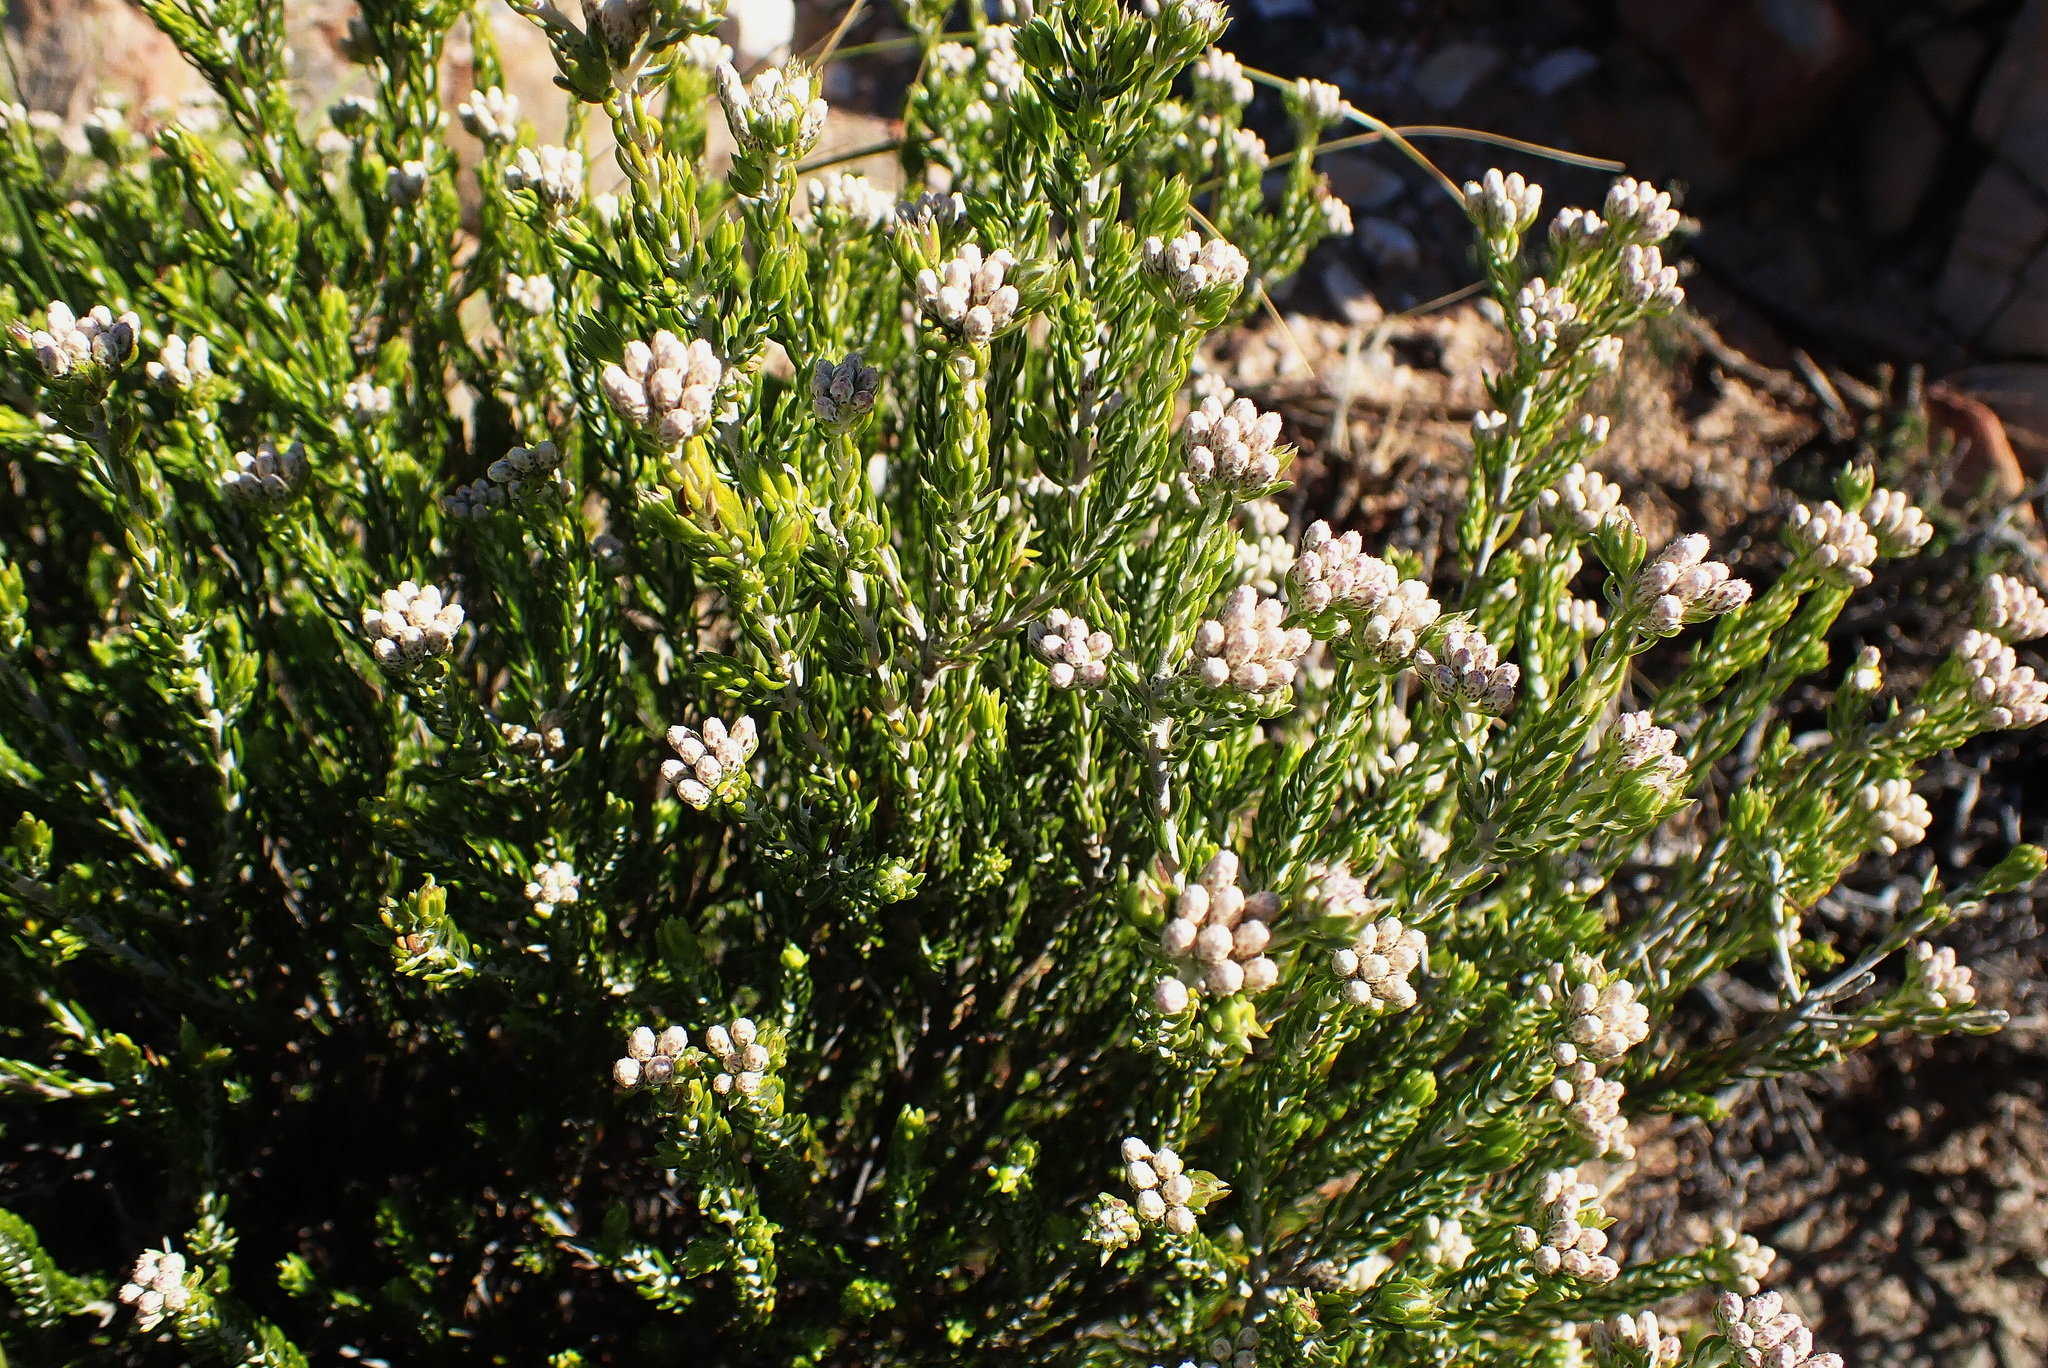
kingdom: Plantae
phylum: Tracheophyta
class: Magnoliopsida
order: Asterales
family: Asteraceae
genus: Metalasia
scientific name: Metalasia pallida
